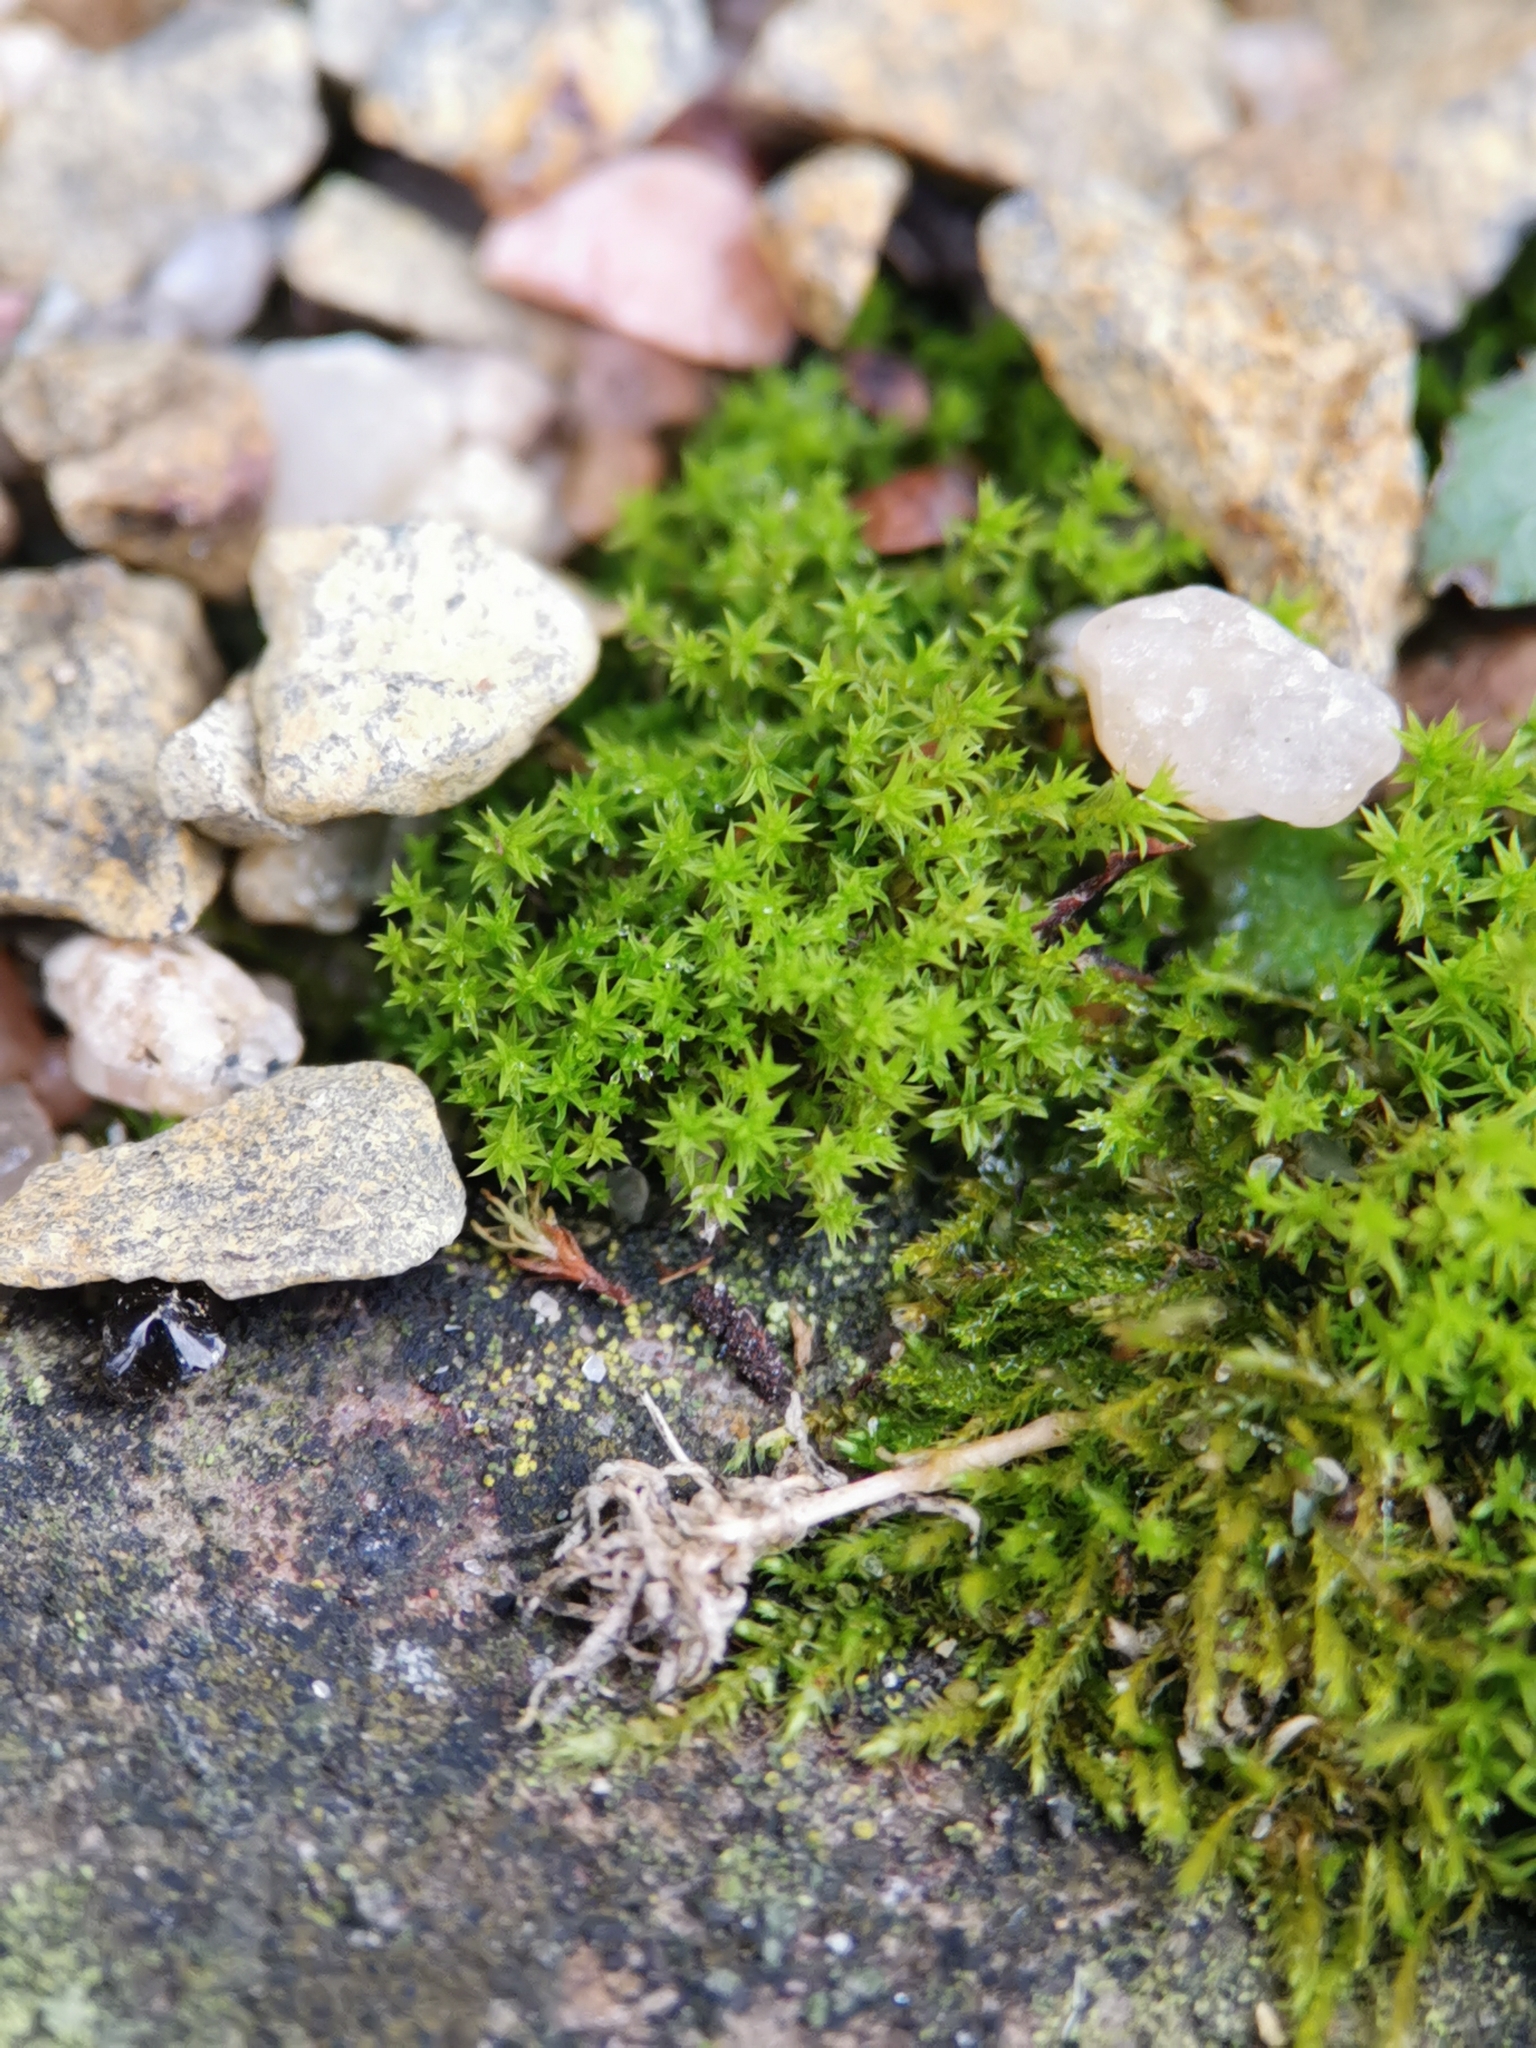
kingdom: Plantae
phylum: Bryophyta
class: Bryopsida
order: Pottiales
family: Pottiaceae
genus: Pseudocrossidium
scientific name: Pseudocrossidium hornschuchianum
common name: Hornschuch's beard-moss
